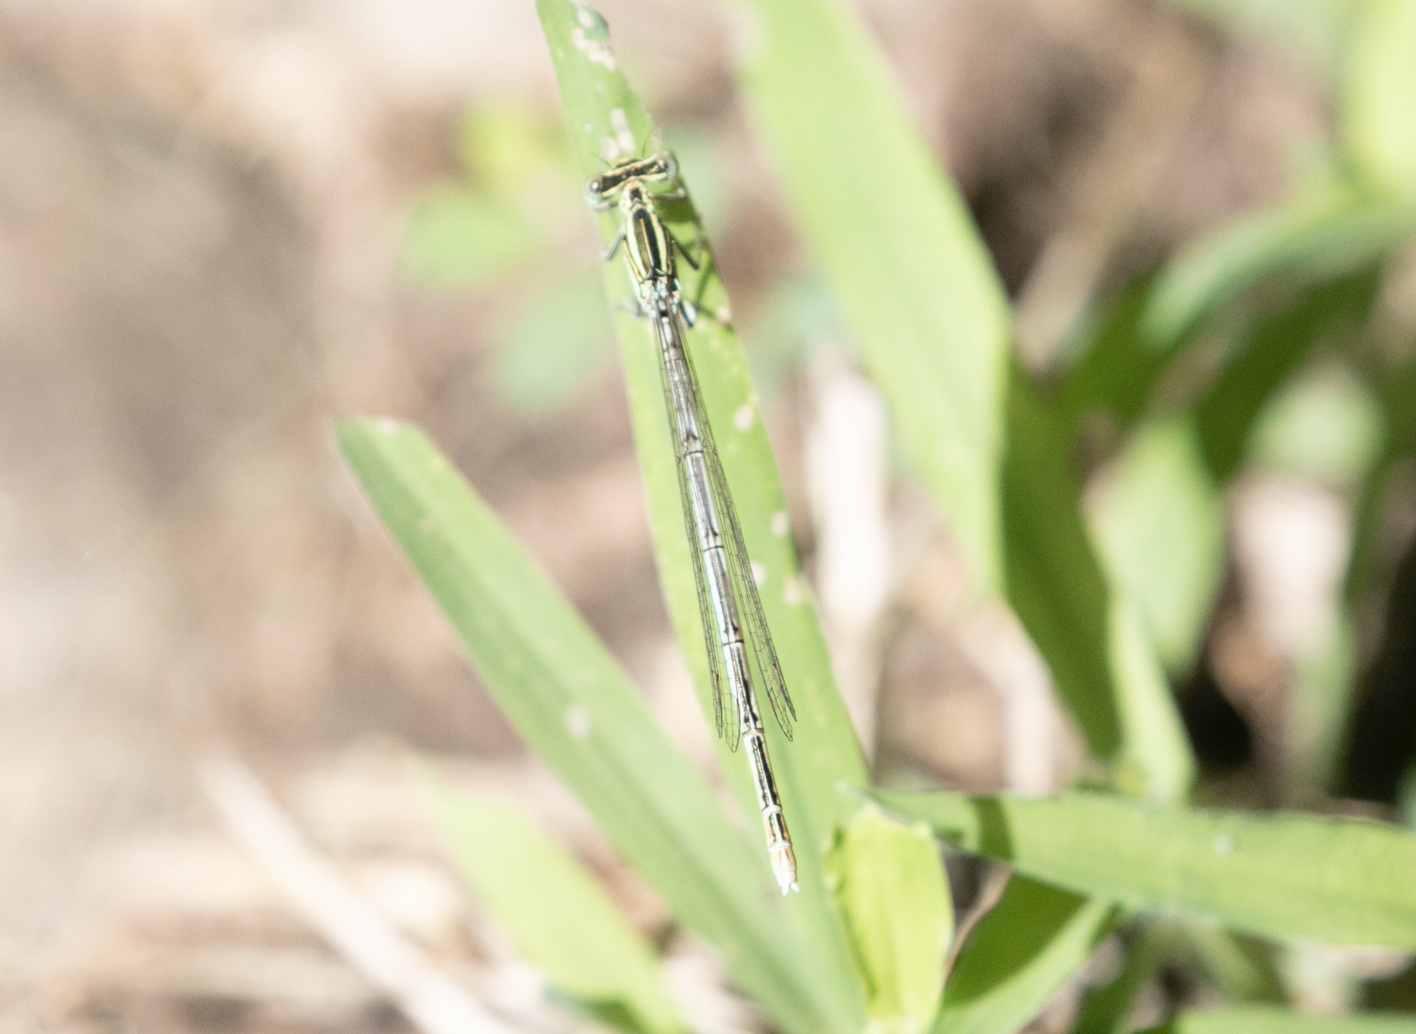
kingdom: Animalia
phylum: Arthropoda
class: Insecta
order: Odonata
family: Platycnemididae
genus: Platycnemis
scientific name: Platycnemis pennipes
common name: White-legged damselfly
